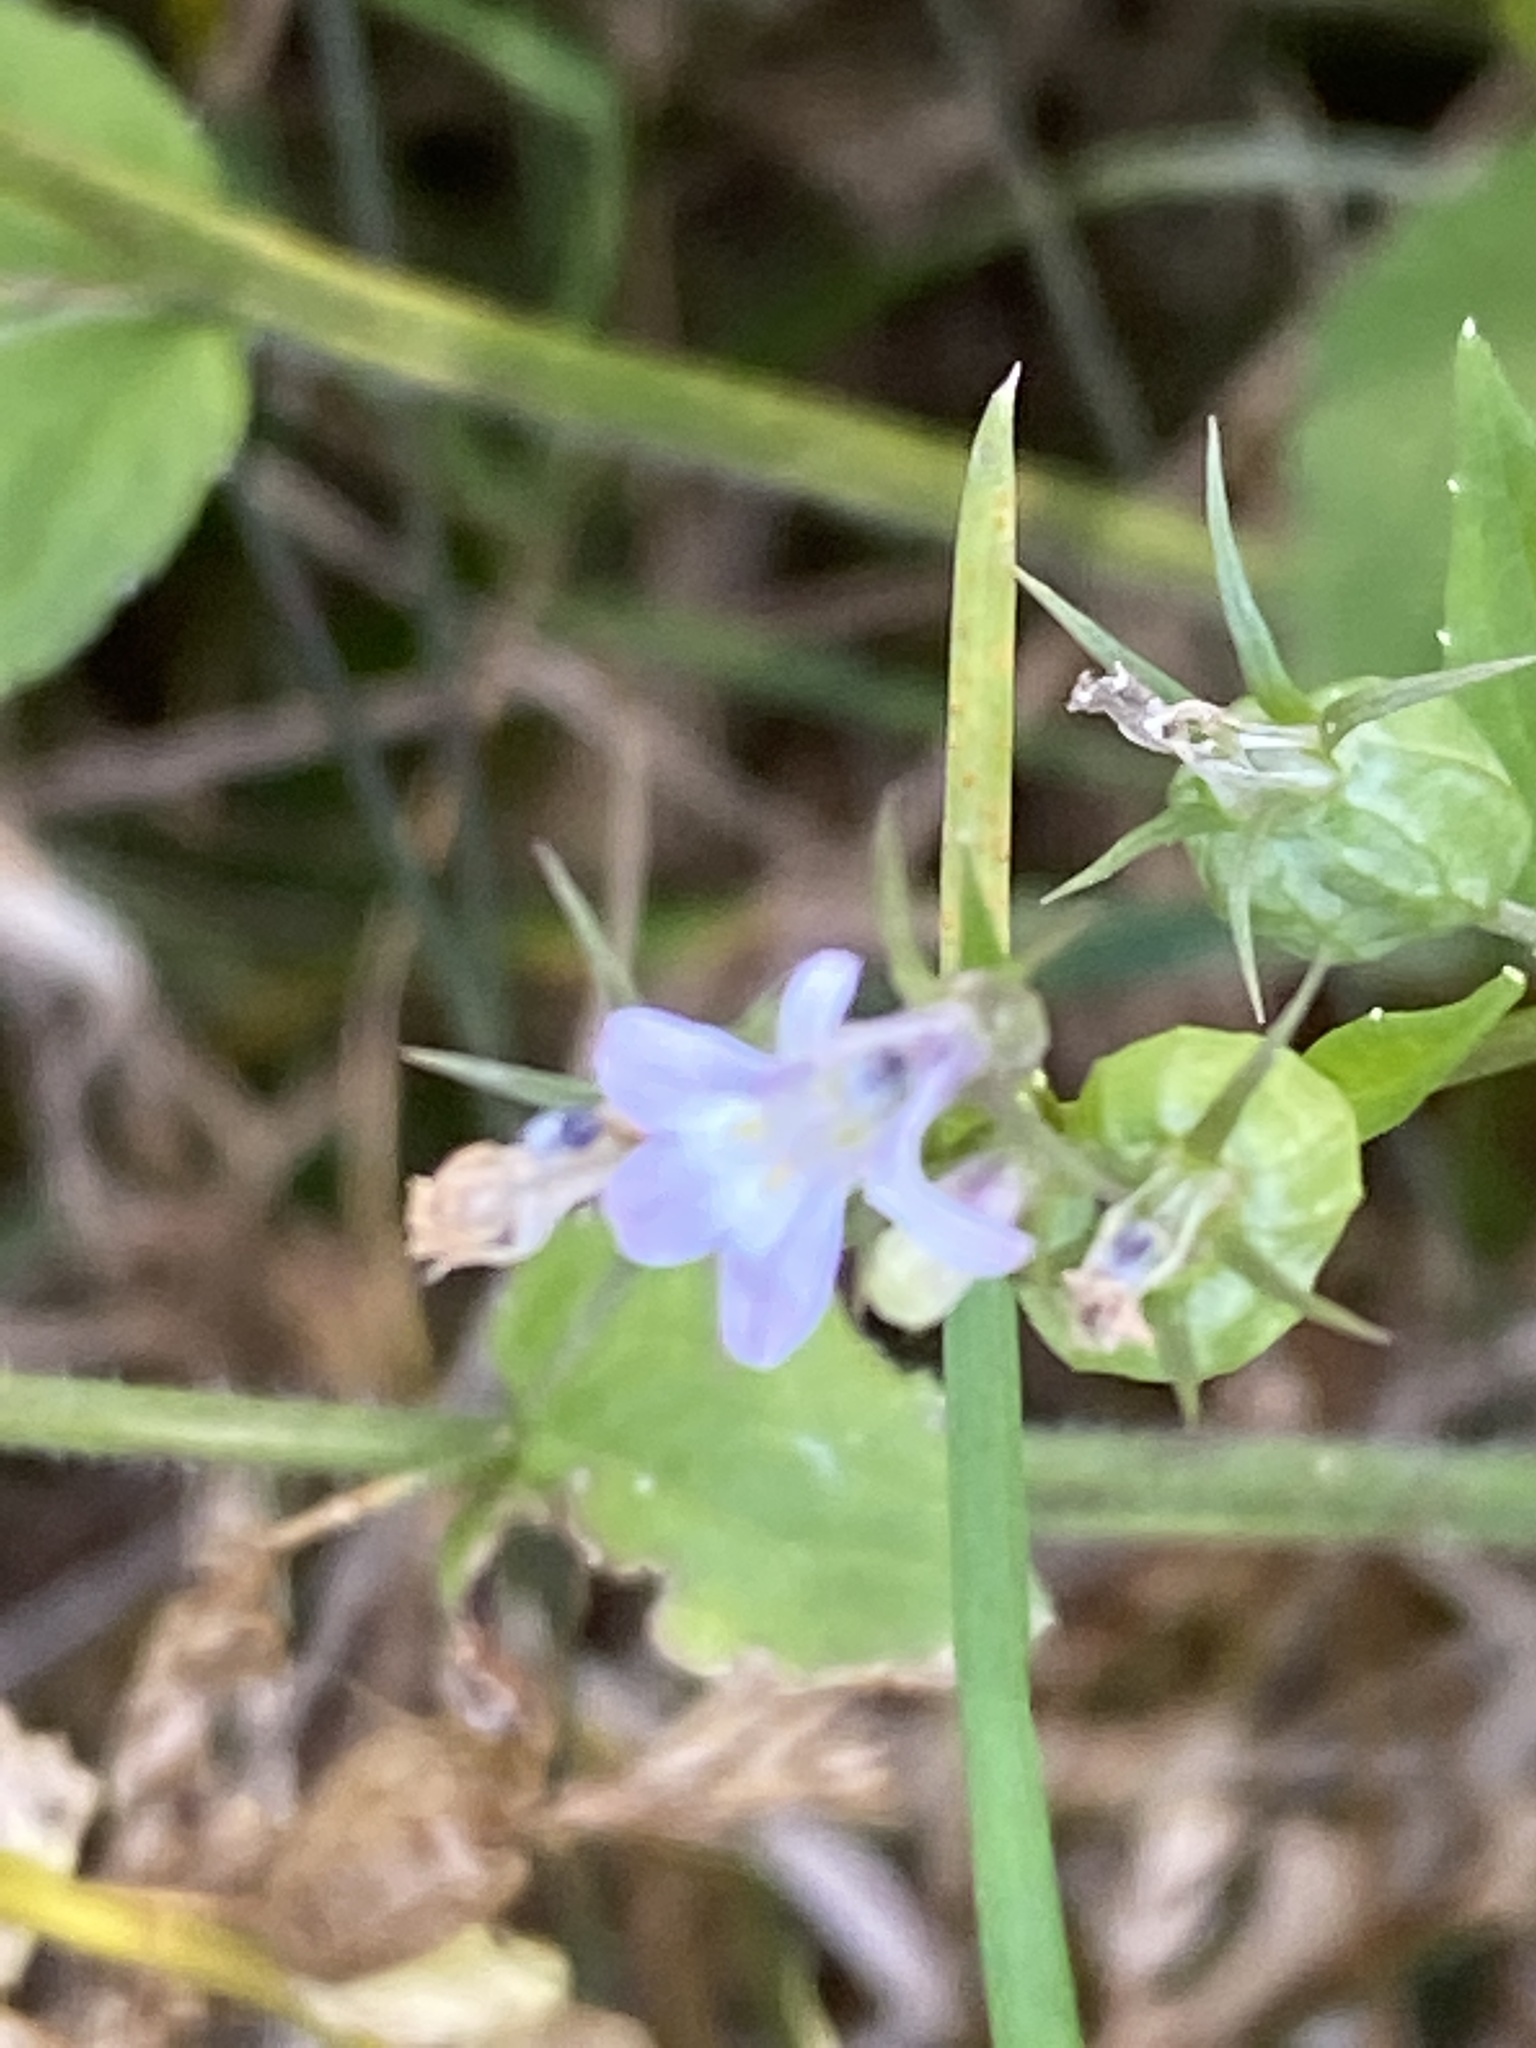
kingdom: Plantae
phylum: Tracheophyta
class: Magnoliopsida
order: Asterales
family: Campanulaceae
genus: Lobelia
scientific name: Lobelia inflata
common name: Indian tobacco
